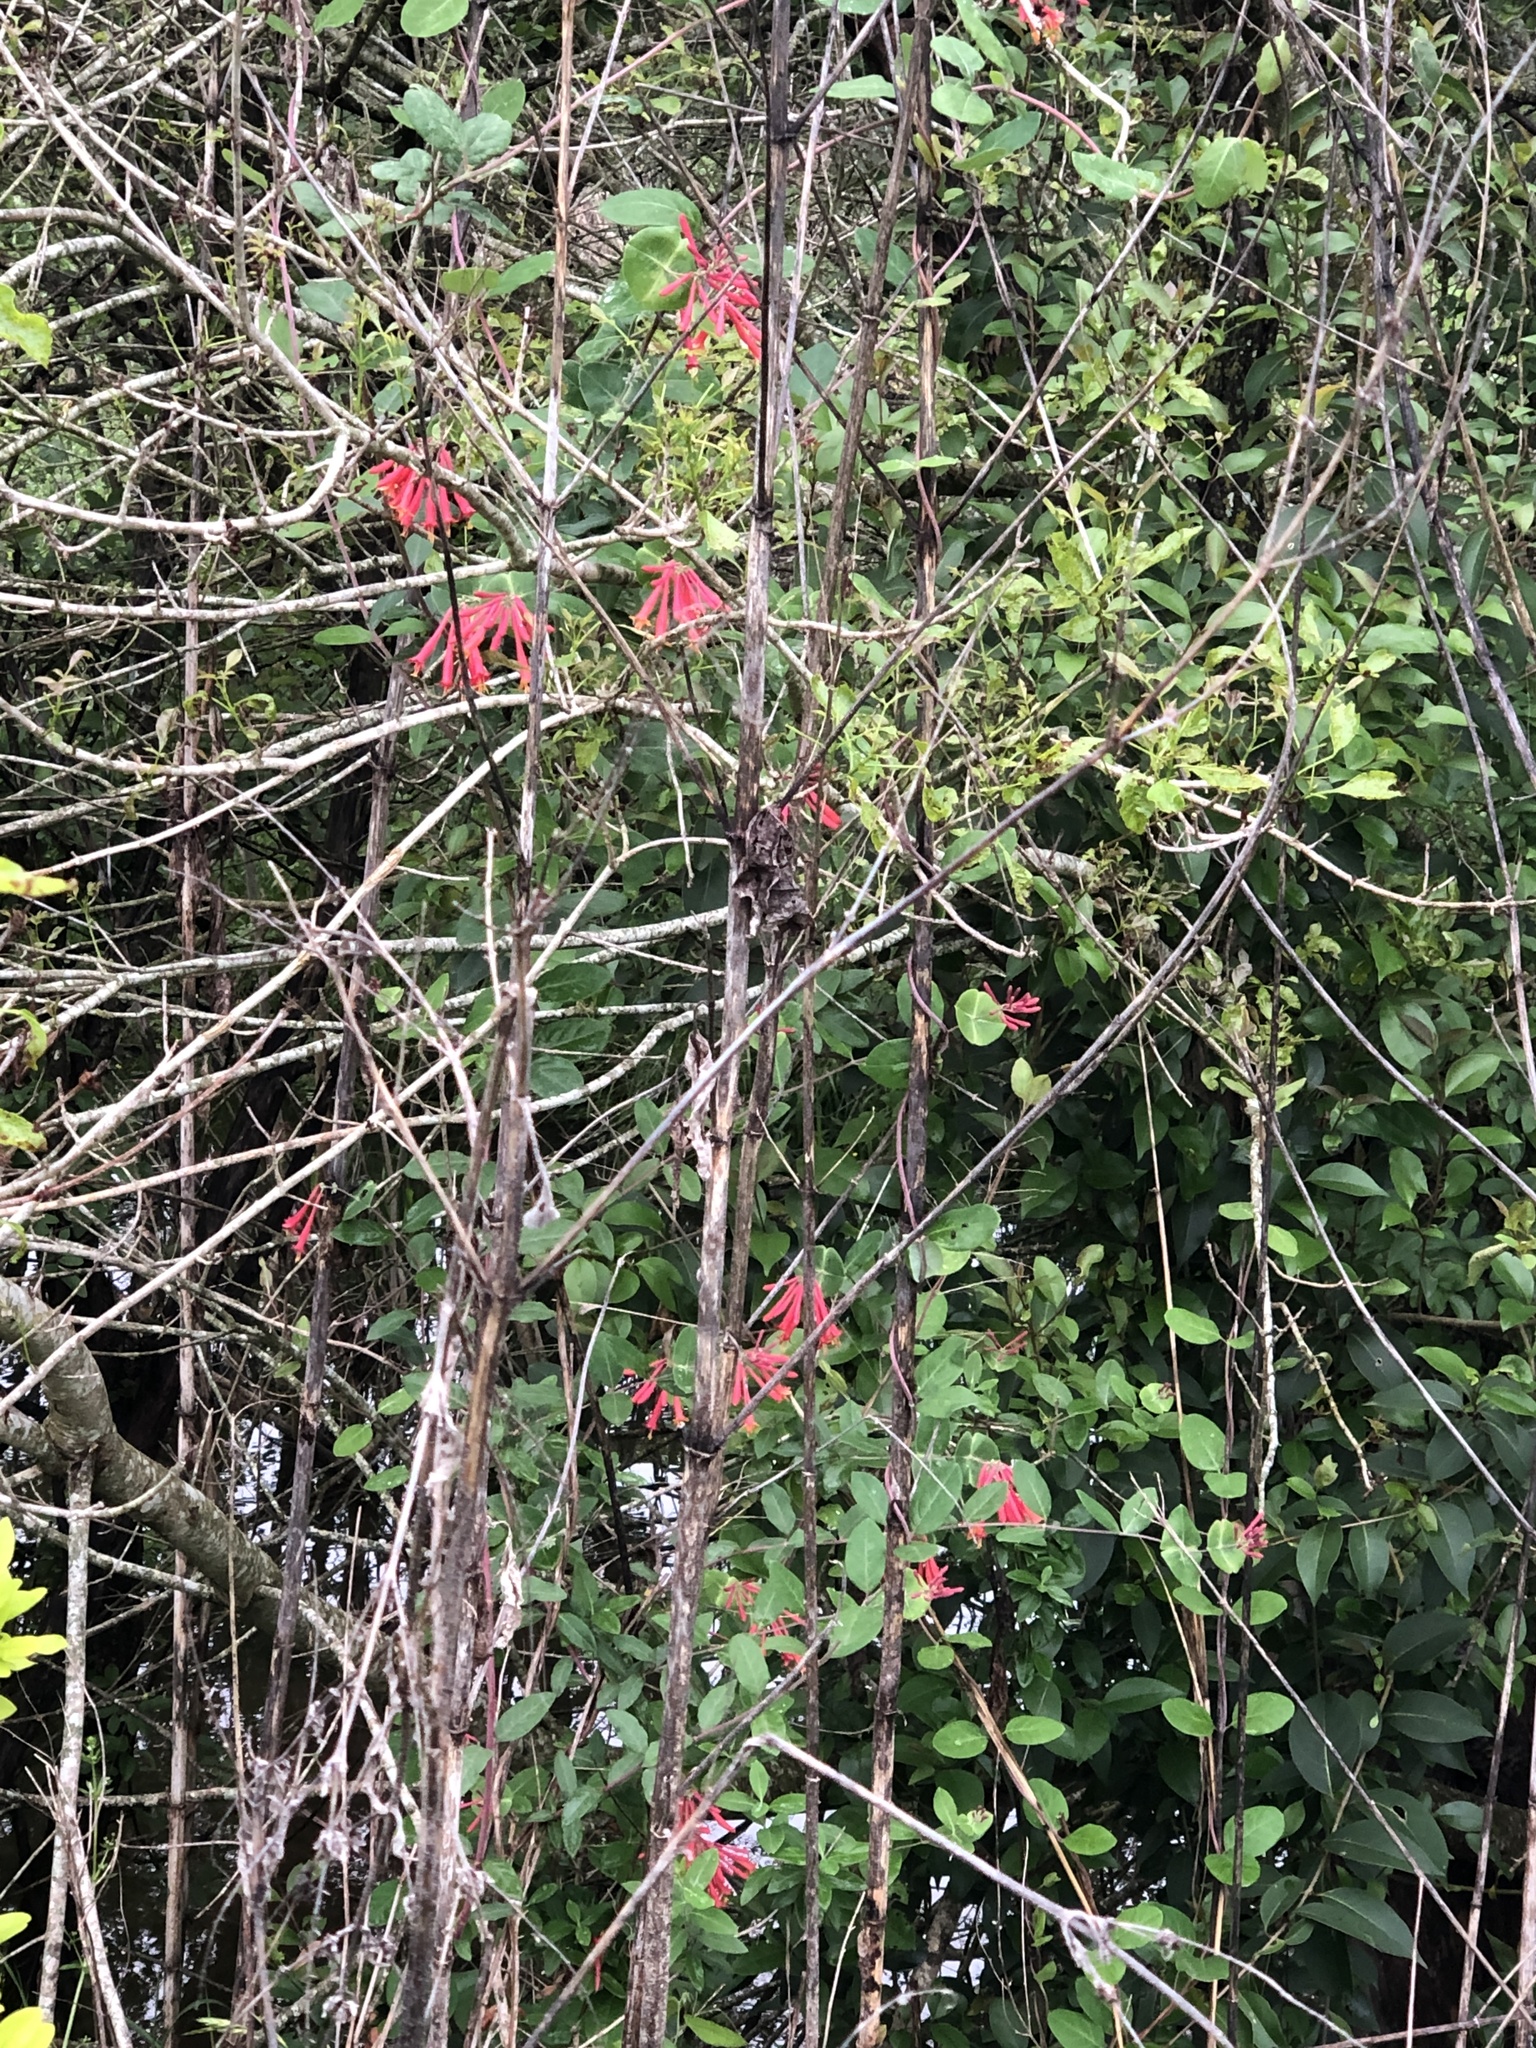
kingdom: Plantae
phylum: Tracheophyta
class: Magnoliopsida
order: Dipsacales
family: Caprifoliaceae
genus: Lonicera
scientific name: Lonicera sempervirens
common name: Coral honeysuckle
